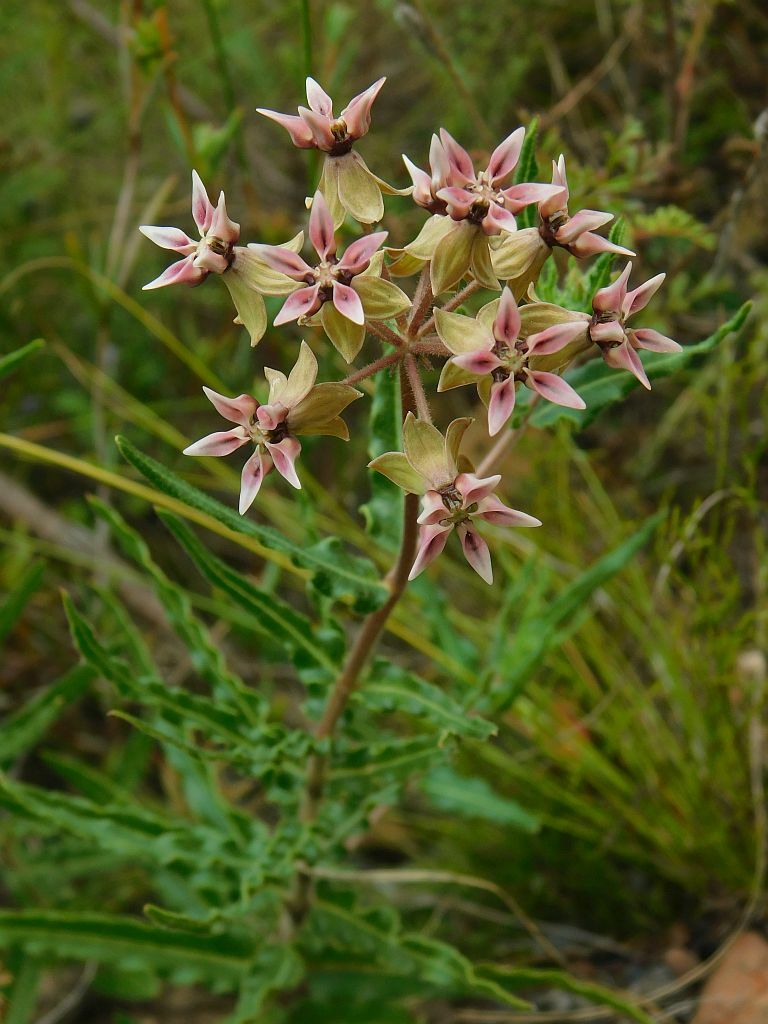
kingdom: Plantae
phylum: Tracheophyta
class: Magnoliopsida
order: Gentianales
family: Apocynaceae
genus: Asclepias
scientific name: Asclepias crispa
